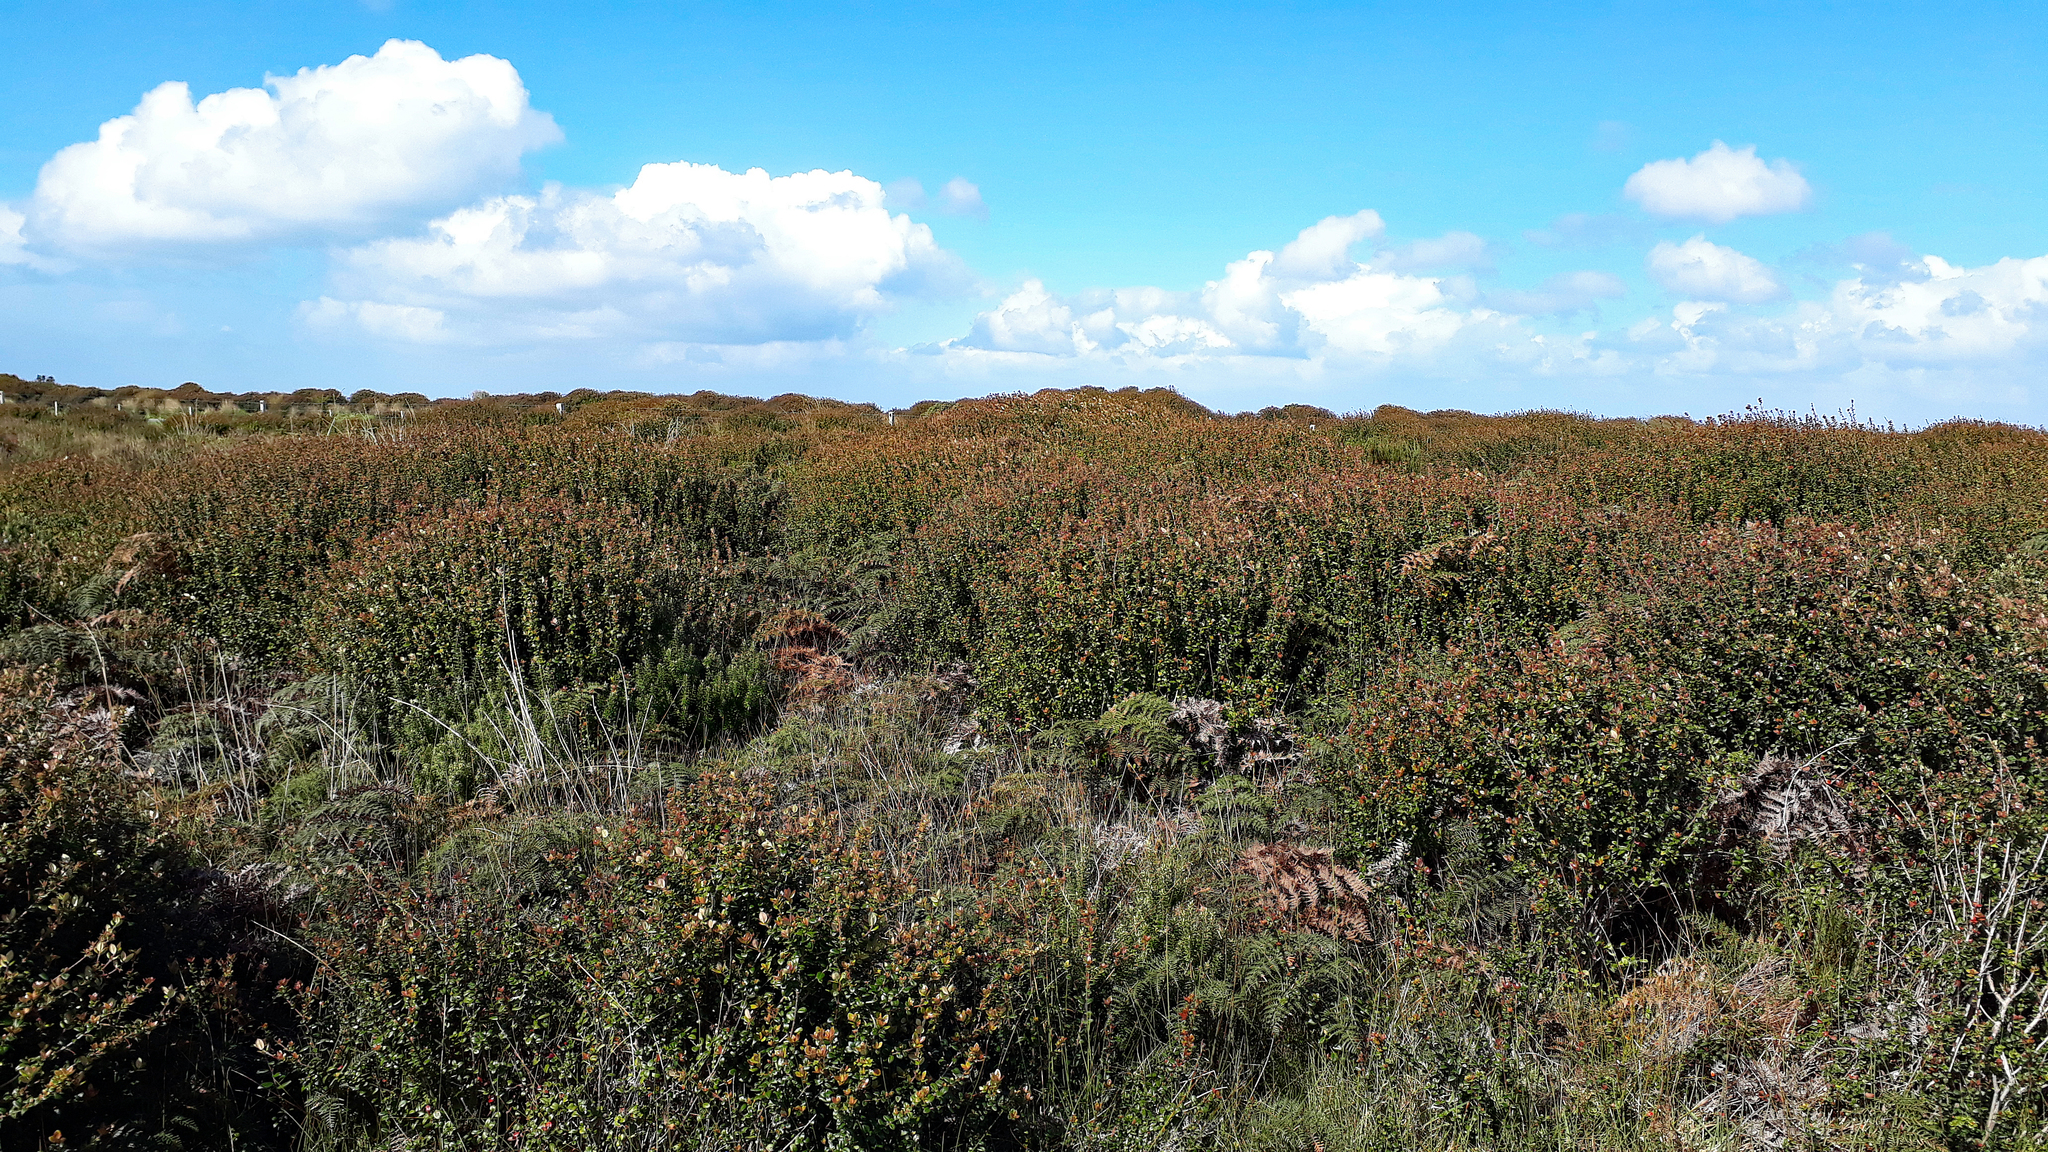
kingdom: Plantae
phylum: Tracheophyta
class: Magnoliopsida
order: Myrtales
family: Myrtaceae
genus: Ugni
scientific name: Ugni molinae
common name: Chilean-guava
